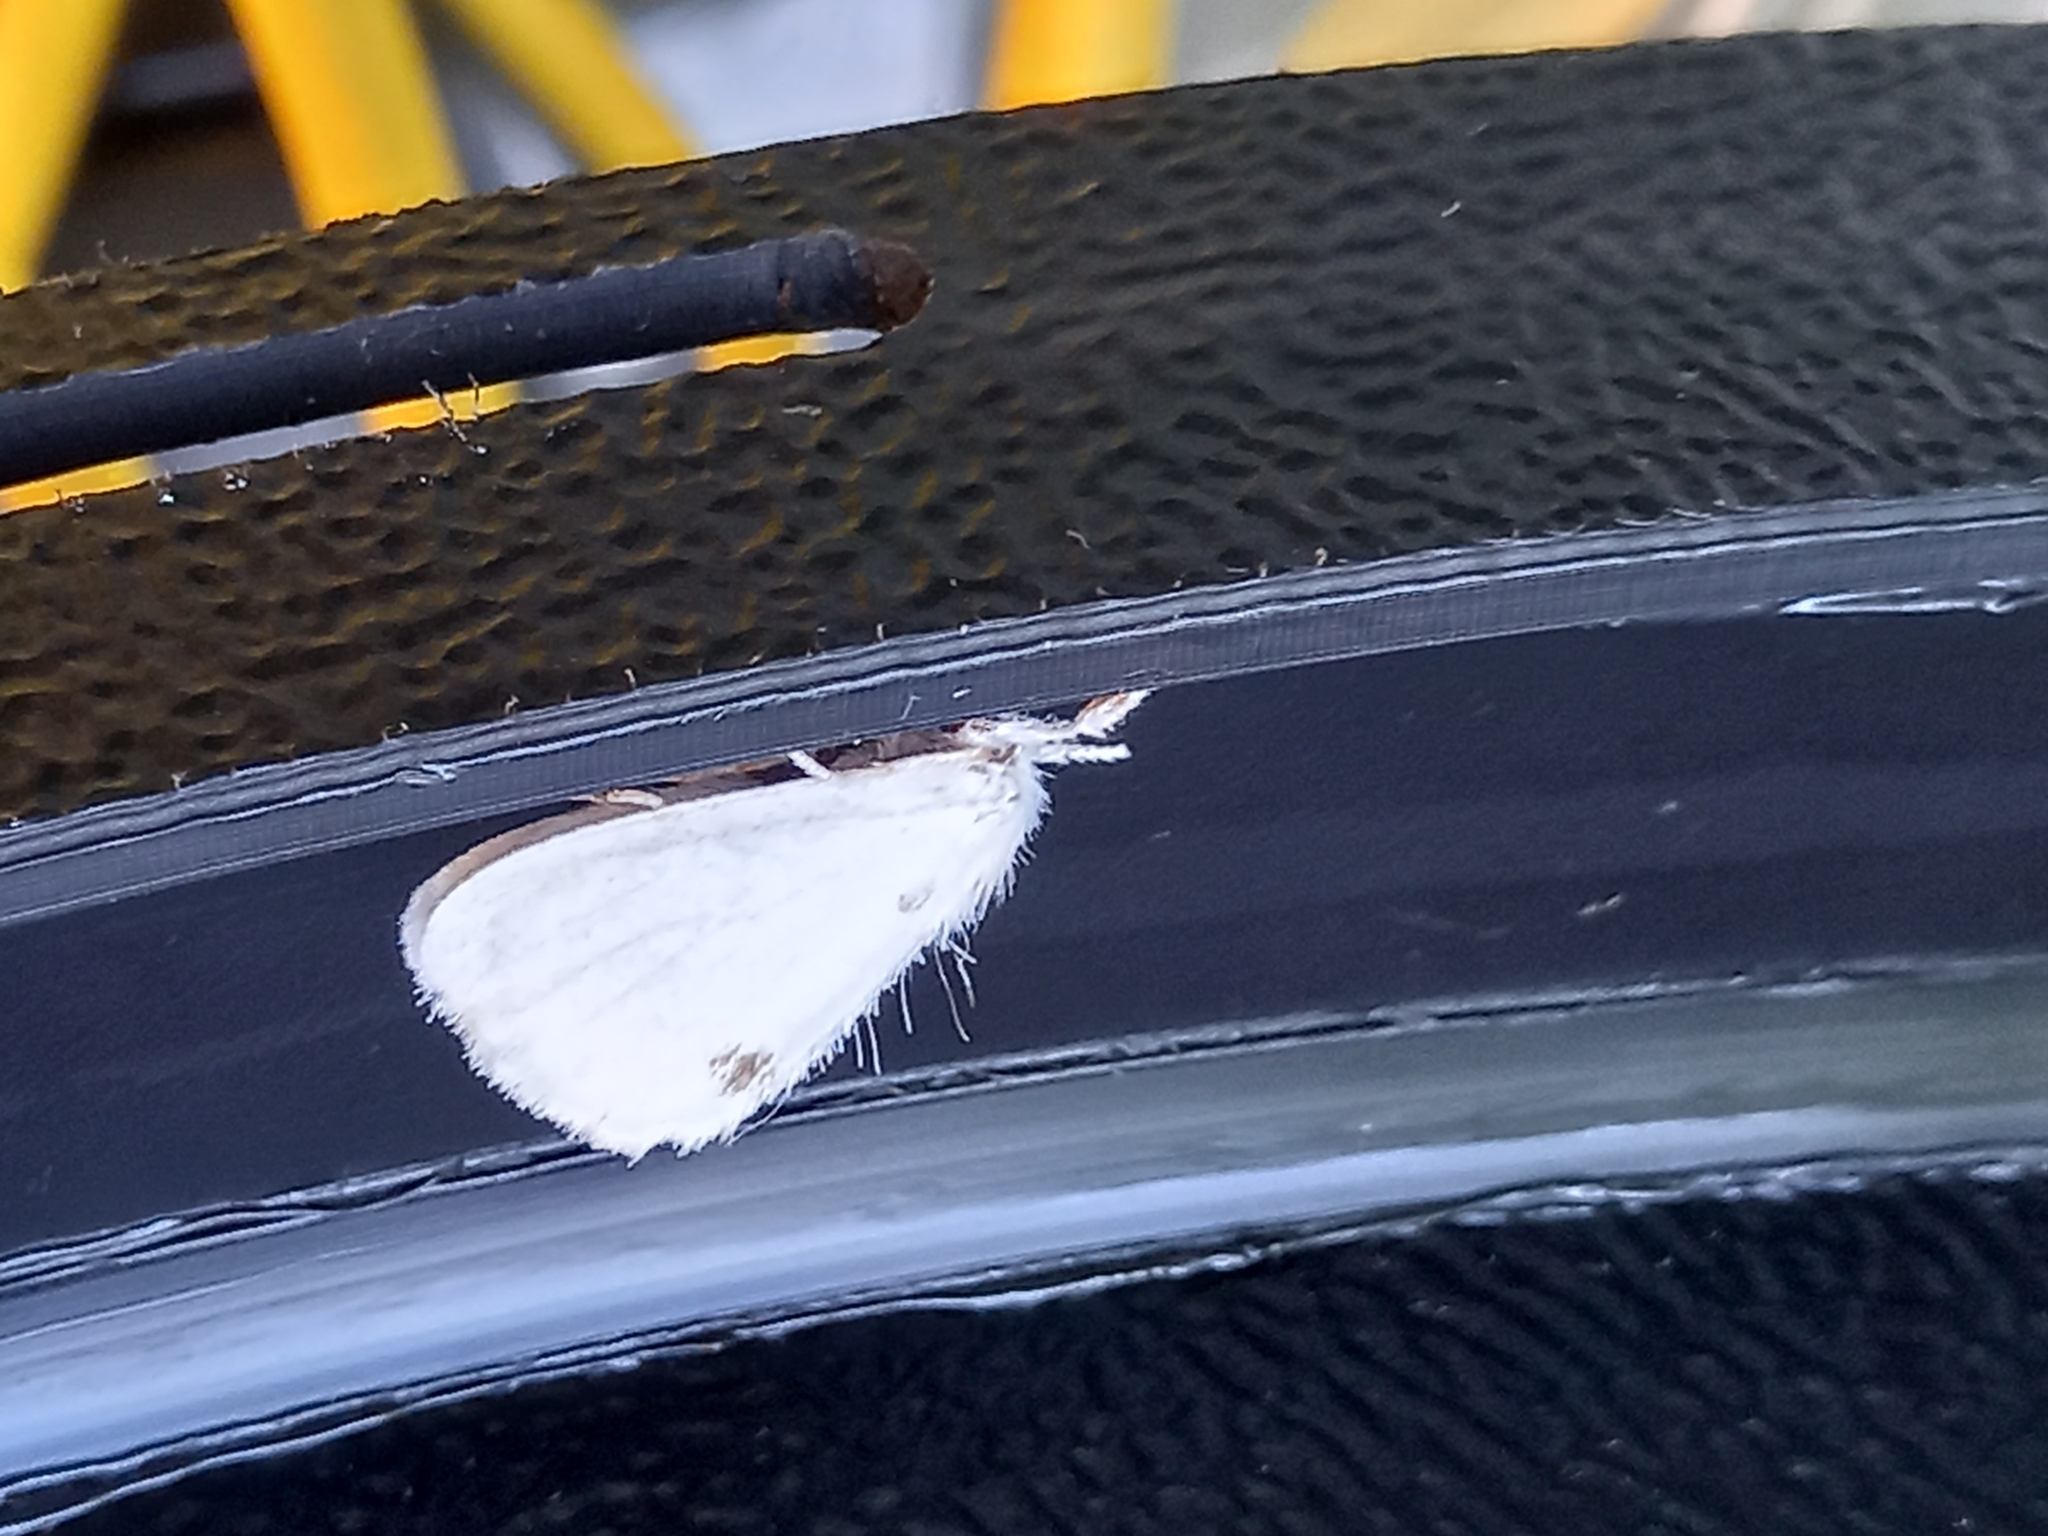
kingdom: Animalia
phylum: Arthropoda
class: Insecta
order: Lepidoptera
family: Erebidae
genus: Sphrageidus
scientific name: Sphrageidus similis
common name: Yellow-tail
